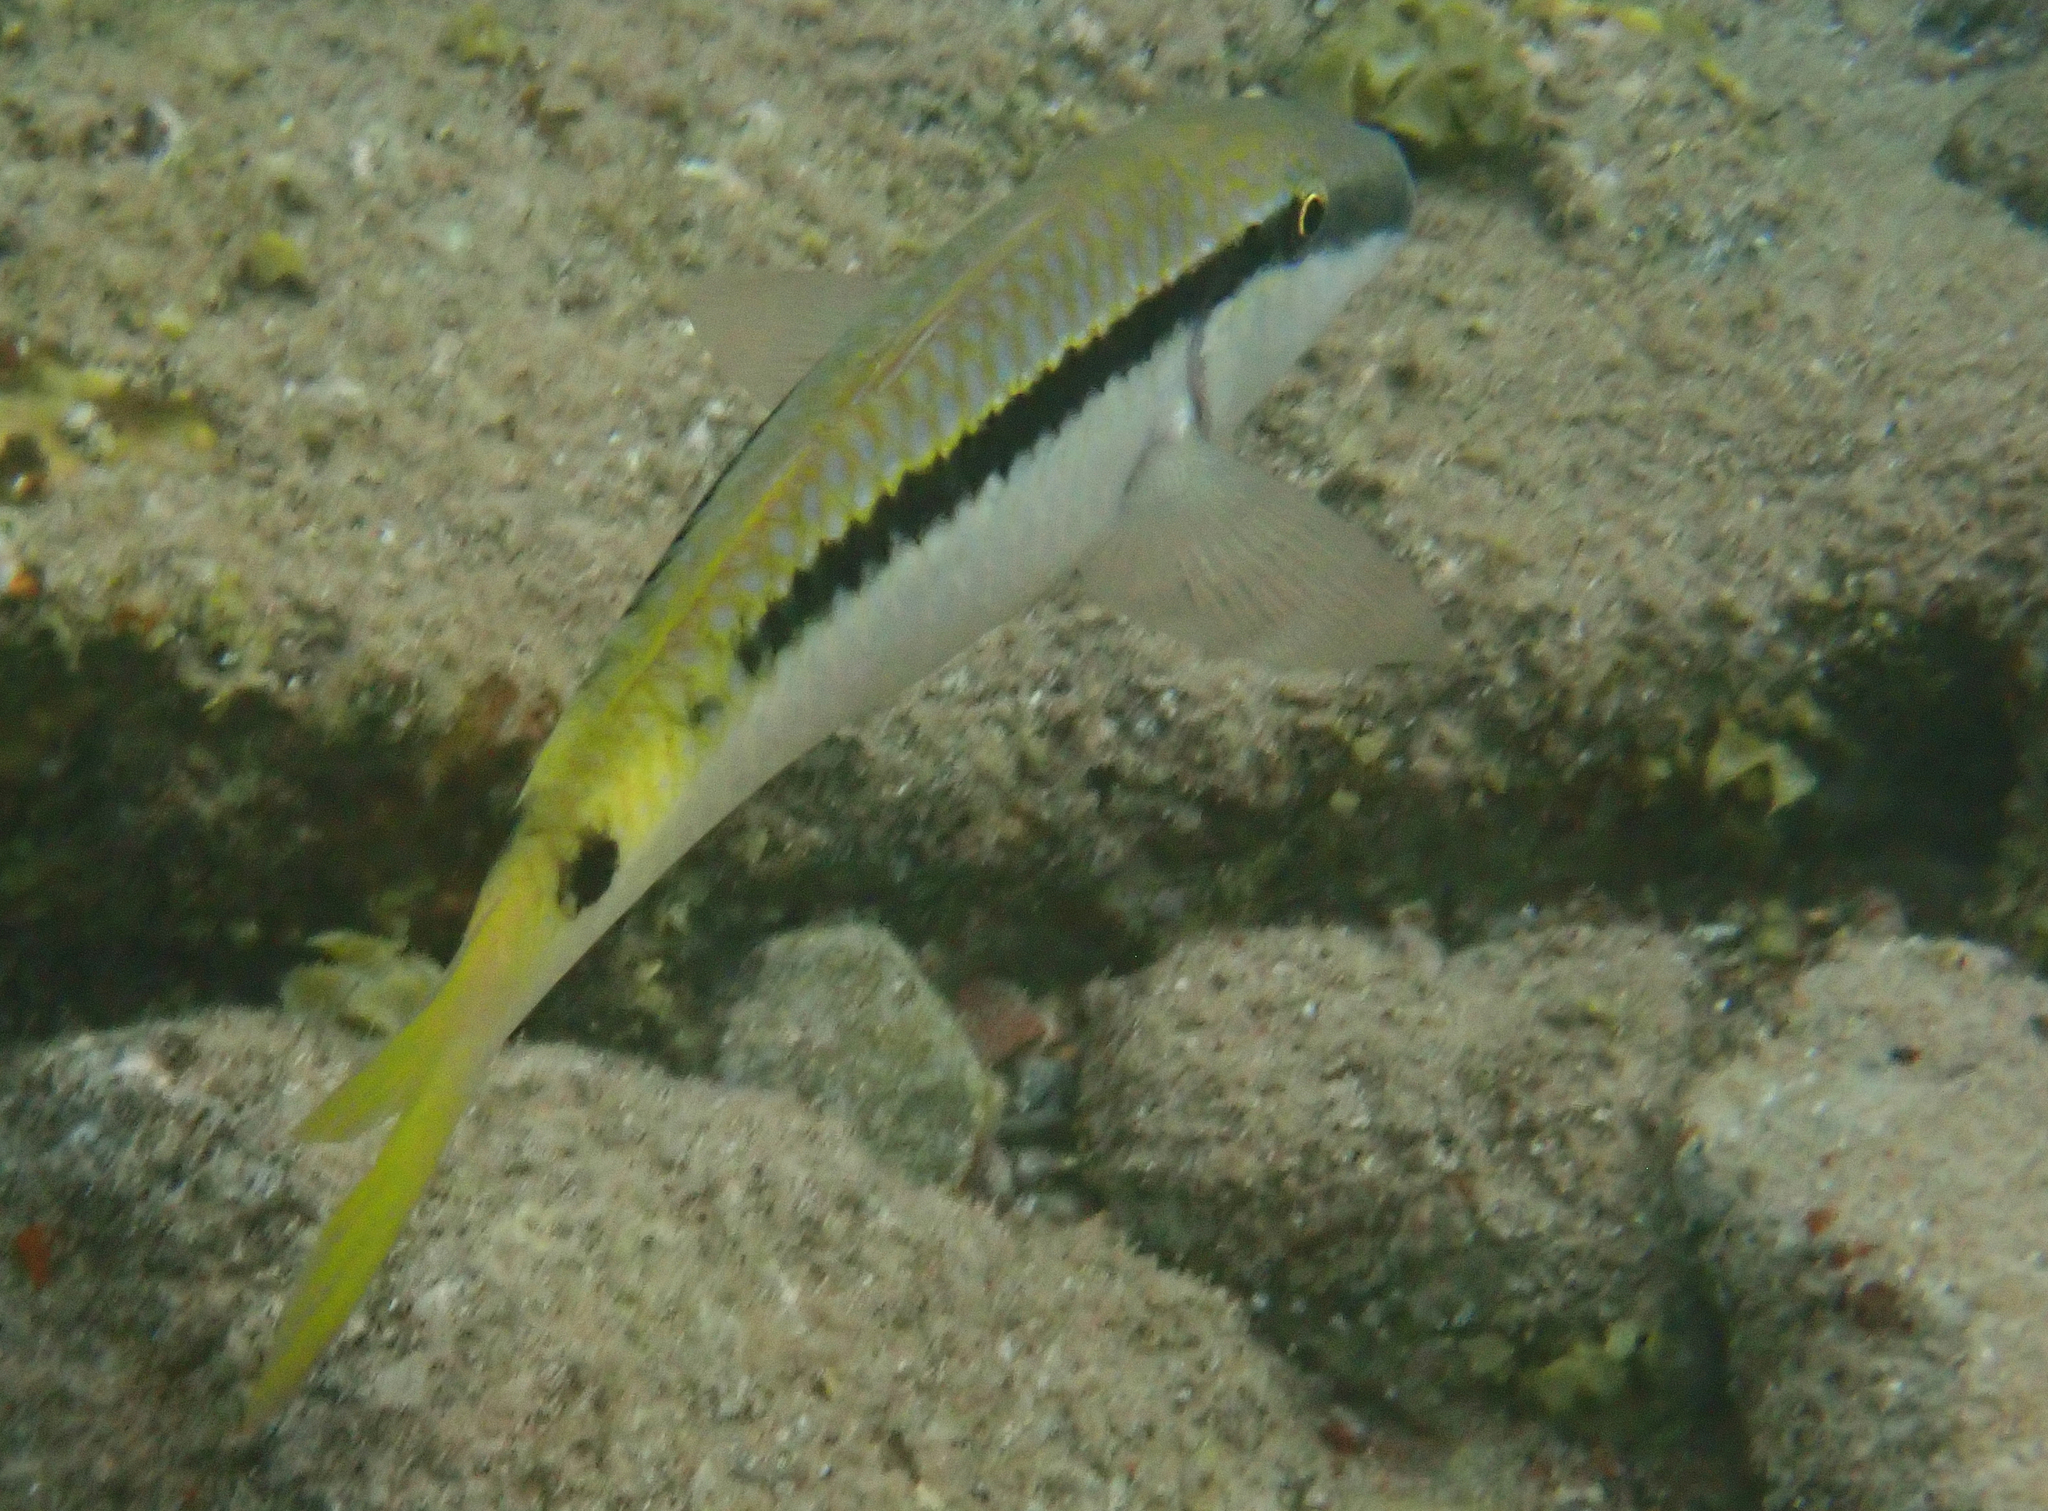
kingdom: Animalia
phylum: Chordata
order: Perciformes
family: Mullidae
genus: Parupeneus
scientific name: Parupeneus forsskali
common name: Red sea goatfish
